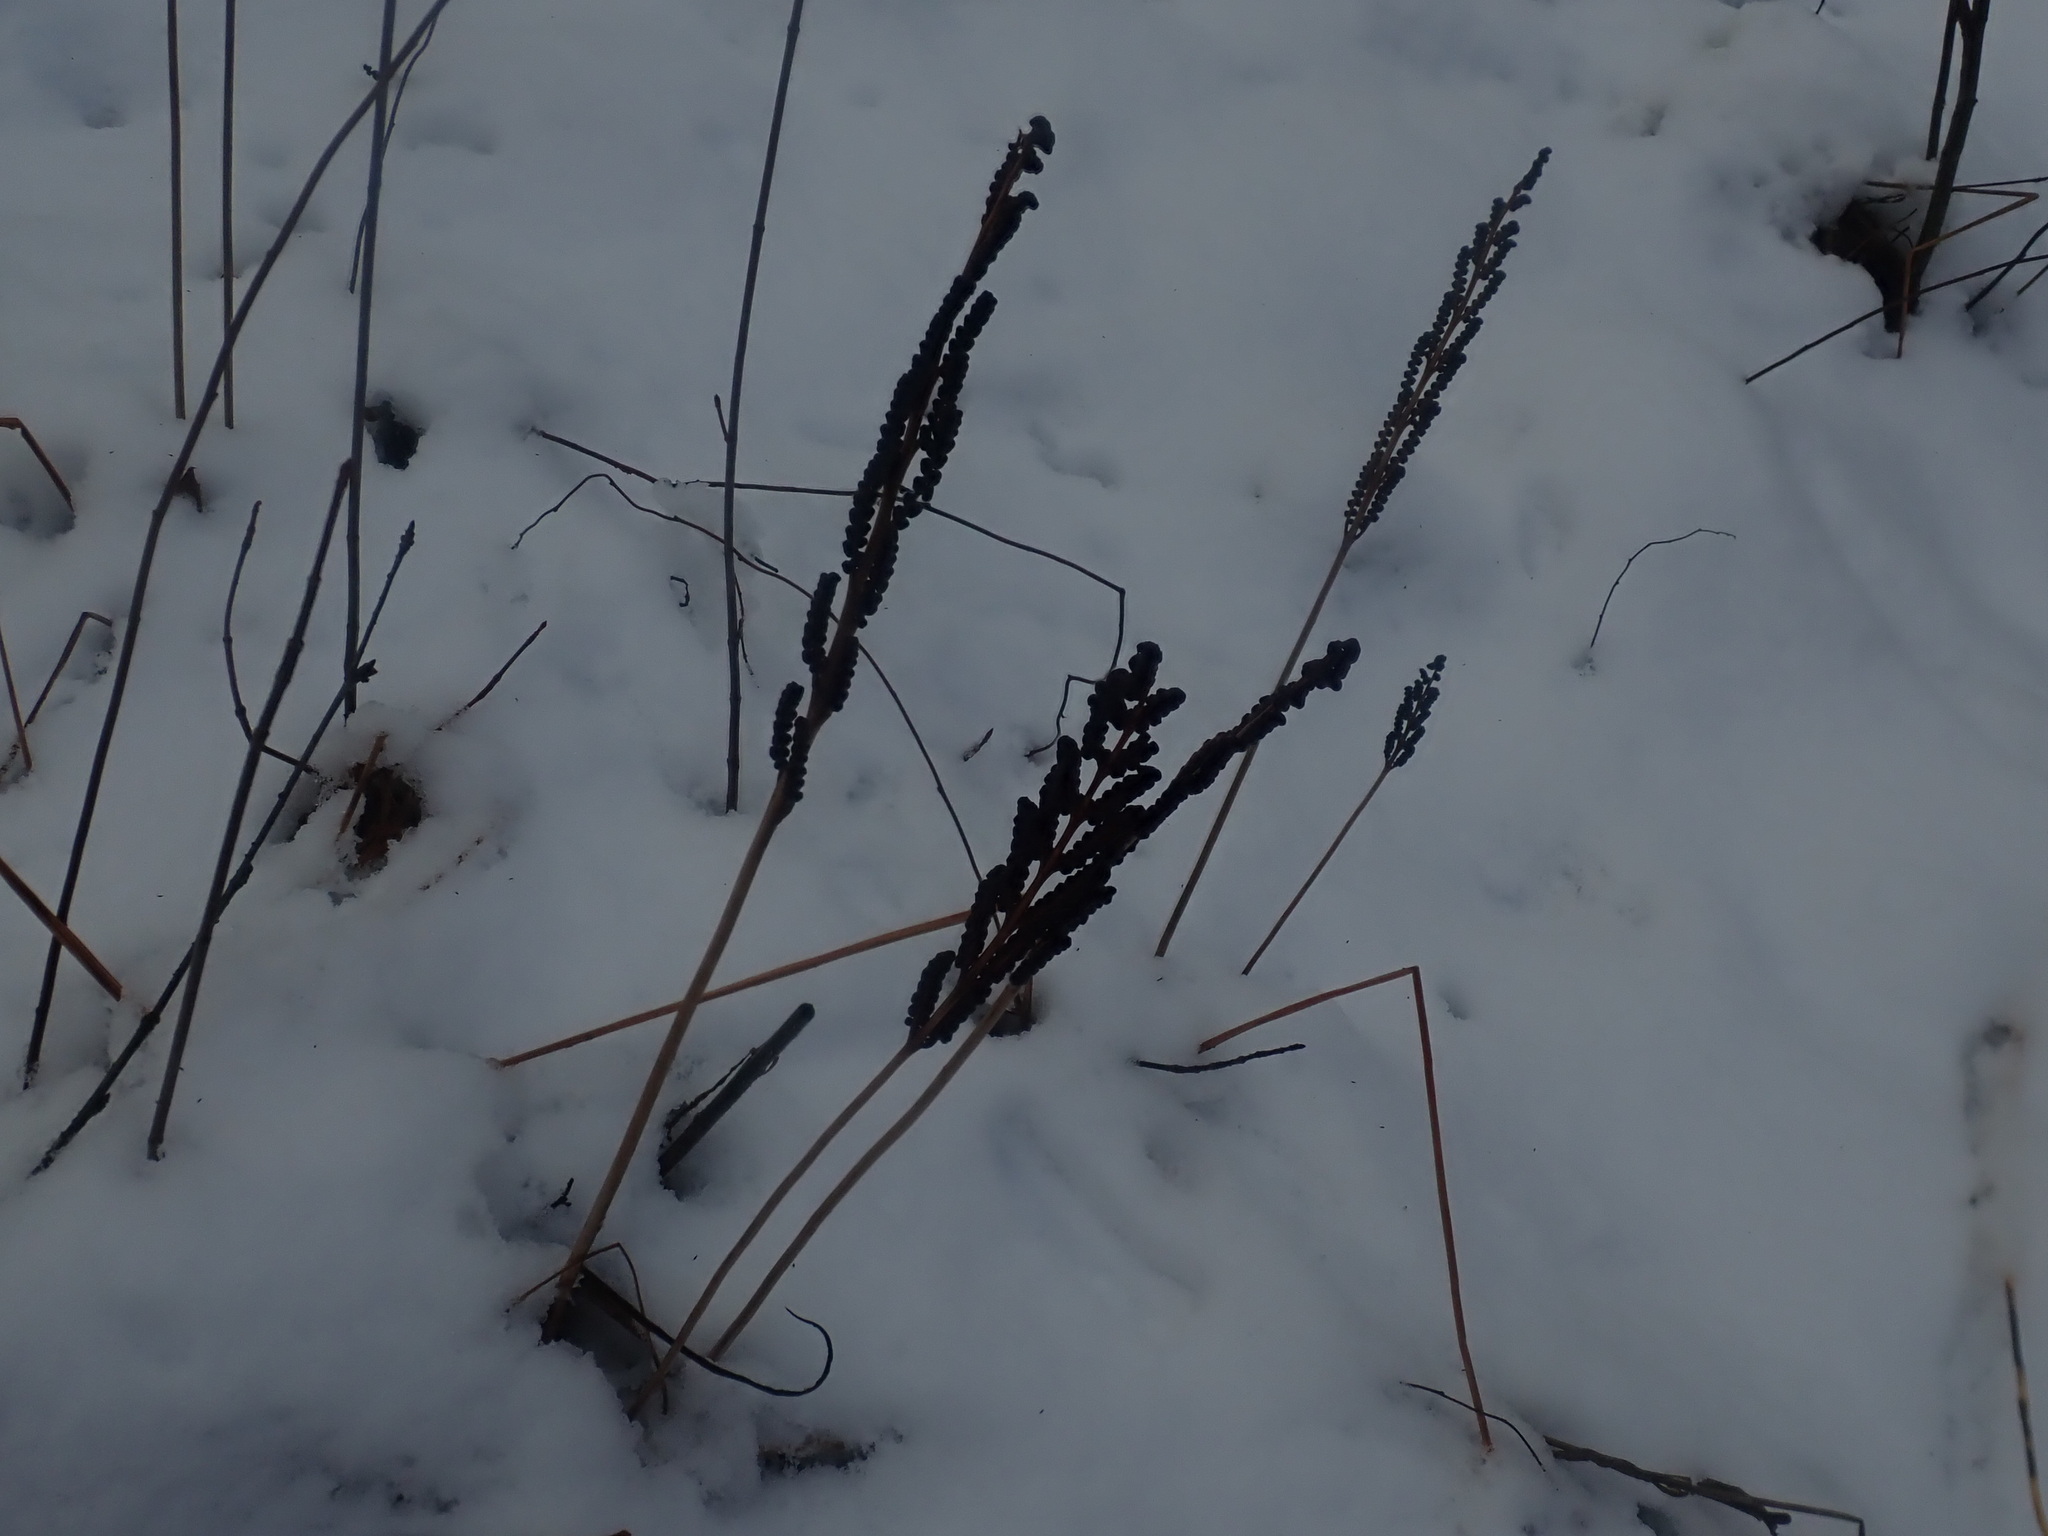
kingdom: Plantae
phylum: Tracheophyta
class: Polypodiopsida
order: Polypodiales
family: Onocleaceae
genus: Onoclea
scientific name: Onoclea sensibilis
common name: Sensitive fern
